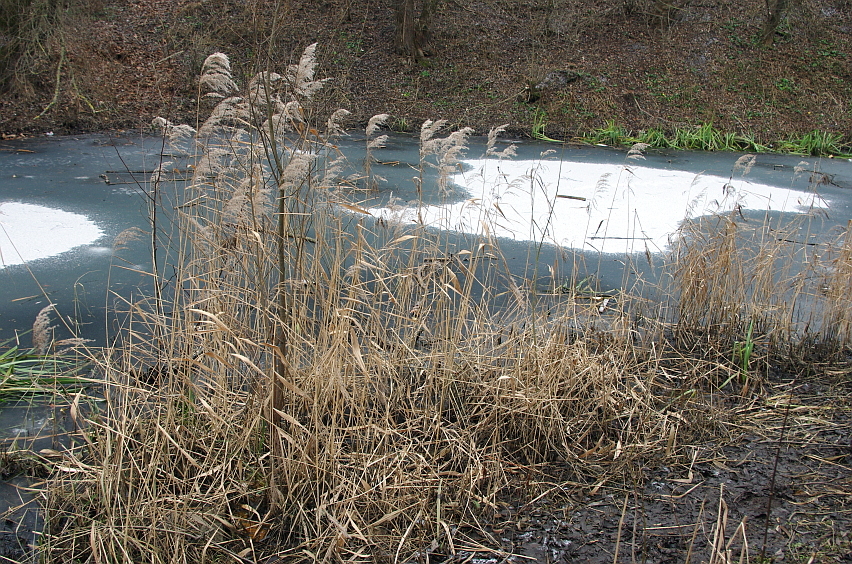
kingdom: Plantae
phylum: Tracheophyta
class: Liliopsida
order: Poales
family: Poaceae
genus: Phragmites
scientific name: Phragmites australis
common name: Common reed
